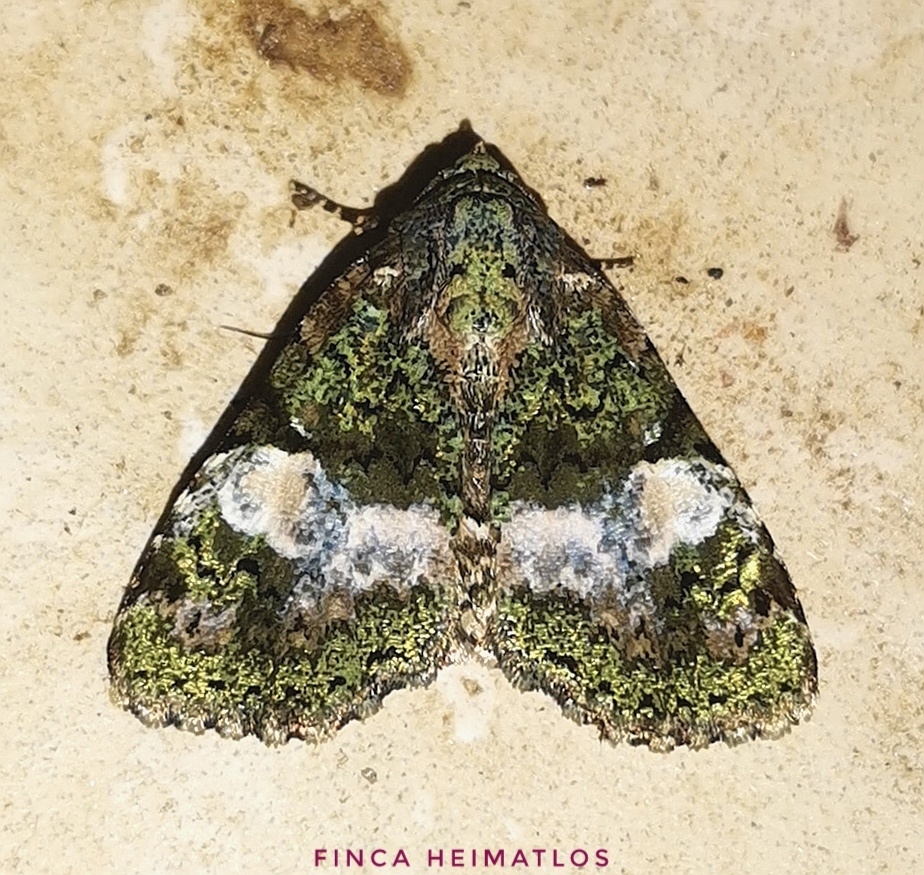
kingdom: Animalia
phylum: Arthropoda
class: Insecta
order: Lepidoptera
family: Erebidae
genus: Eudyops
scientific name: Eudyops fuscoviridis
